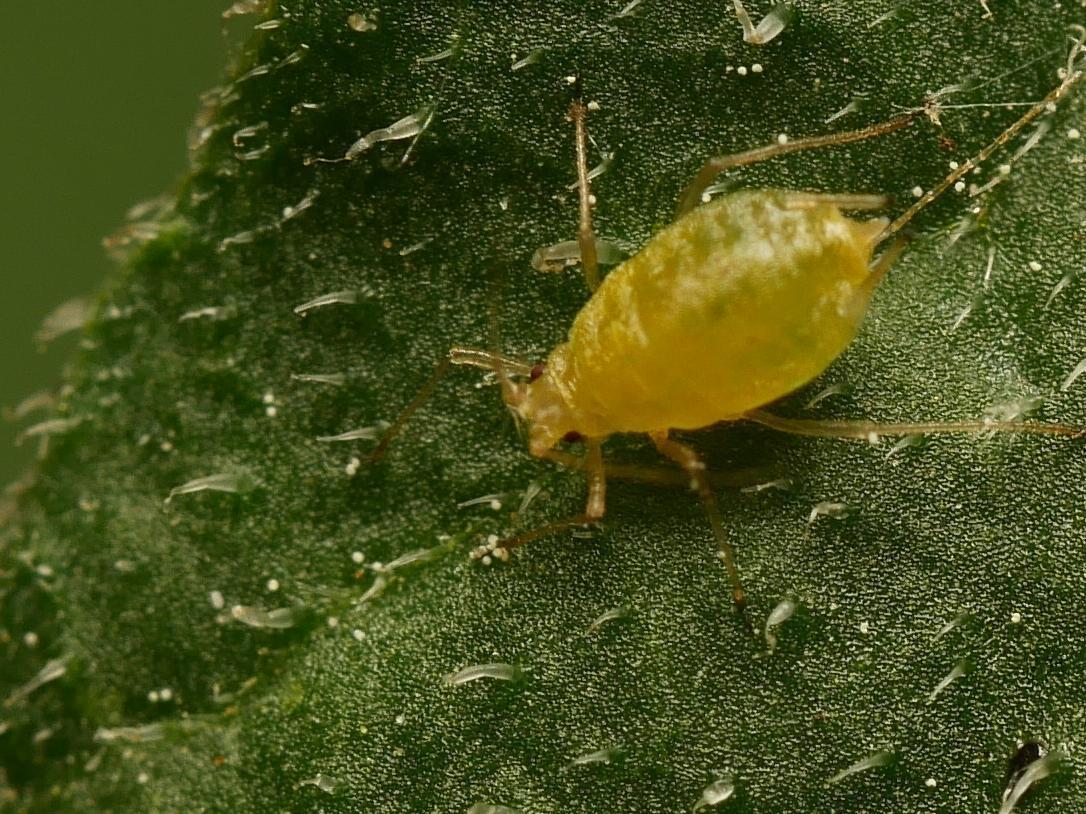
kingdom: Animalia
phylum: Arthropoda
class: Insecta
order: Hemiptera
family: Aphididae
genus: Myzus
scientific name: Myzus persicae
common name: Green peach aphid
